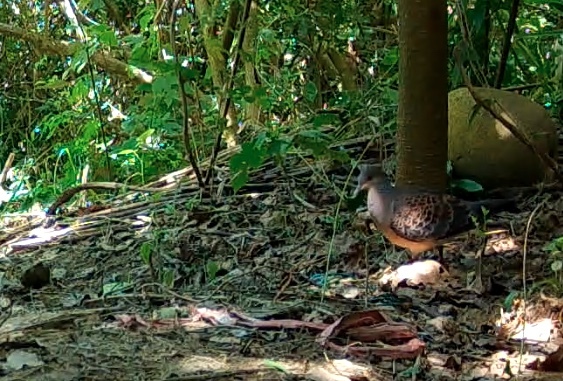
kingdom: Animalia
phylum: Chordata
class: Aves
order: Columbiformes
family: Columbidae
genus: Streptopelia
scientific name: Streptopelia orientalis
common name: Oriental turtle dove
